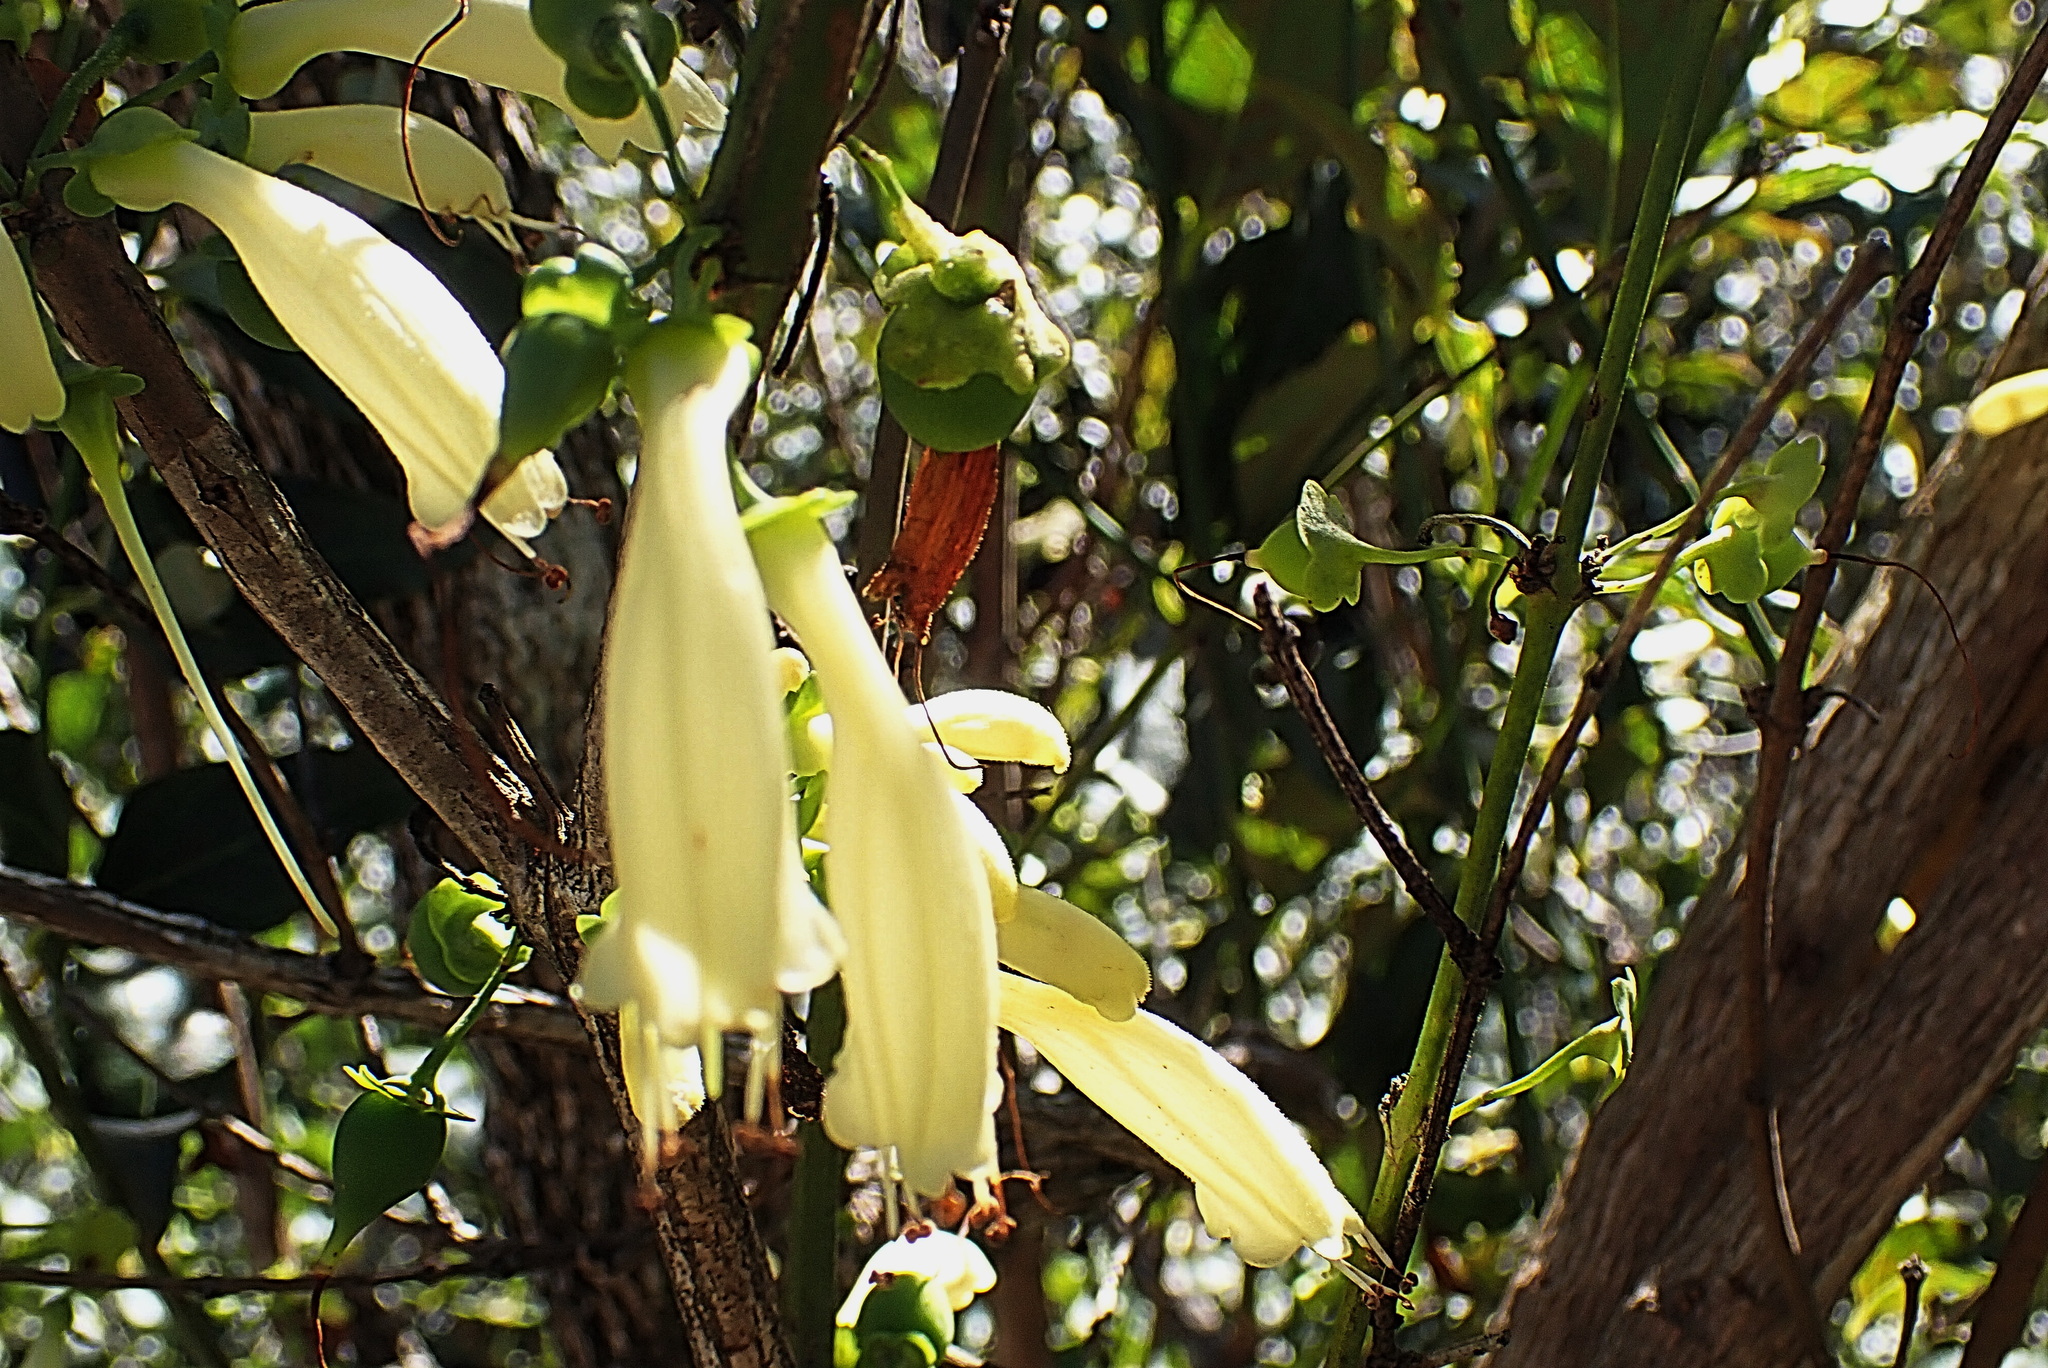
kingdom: Plantae
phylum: Tracheophyta
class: Magnoliopsida
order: Lamiales
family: Stilbaceae
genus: Halleria
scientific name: Halleria lucida
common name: Tree fuschia
